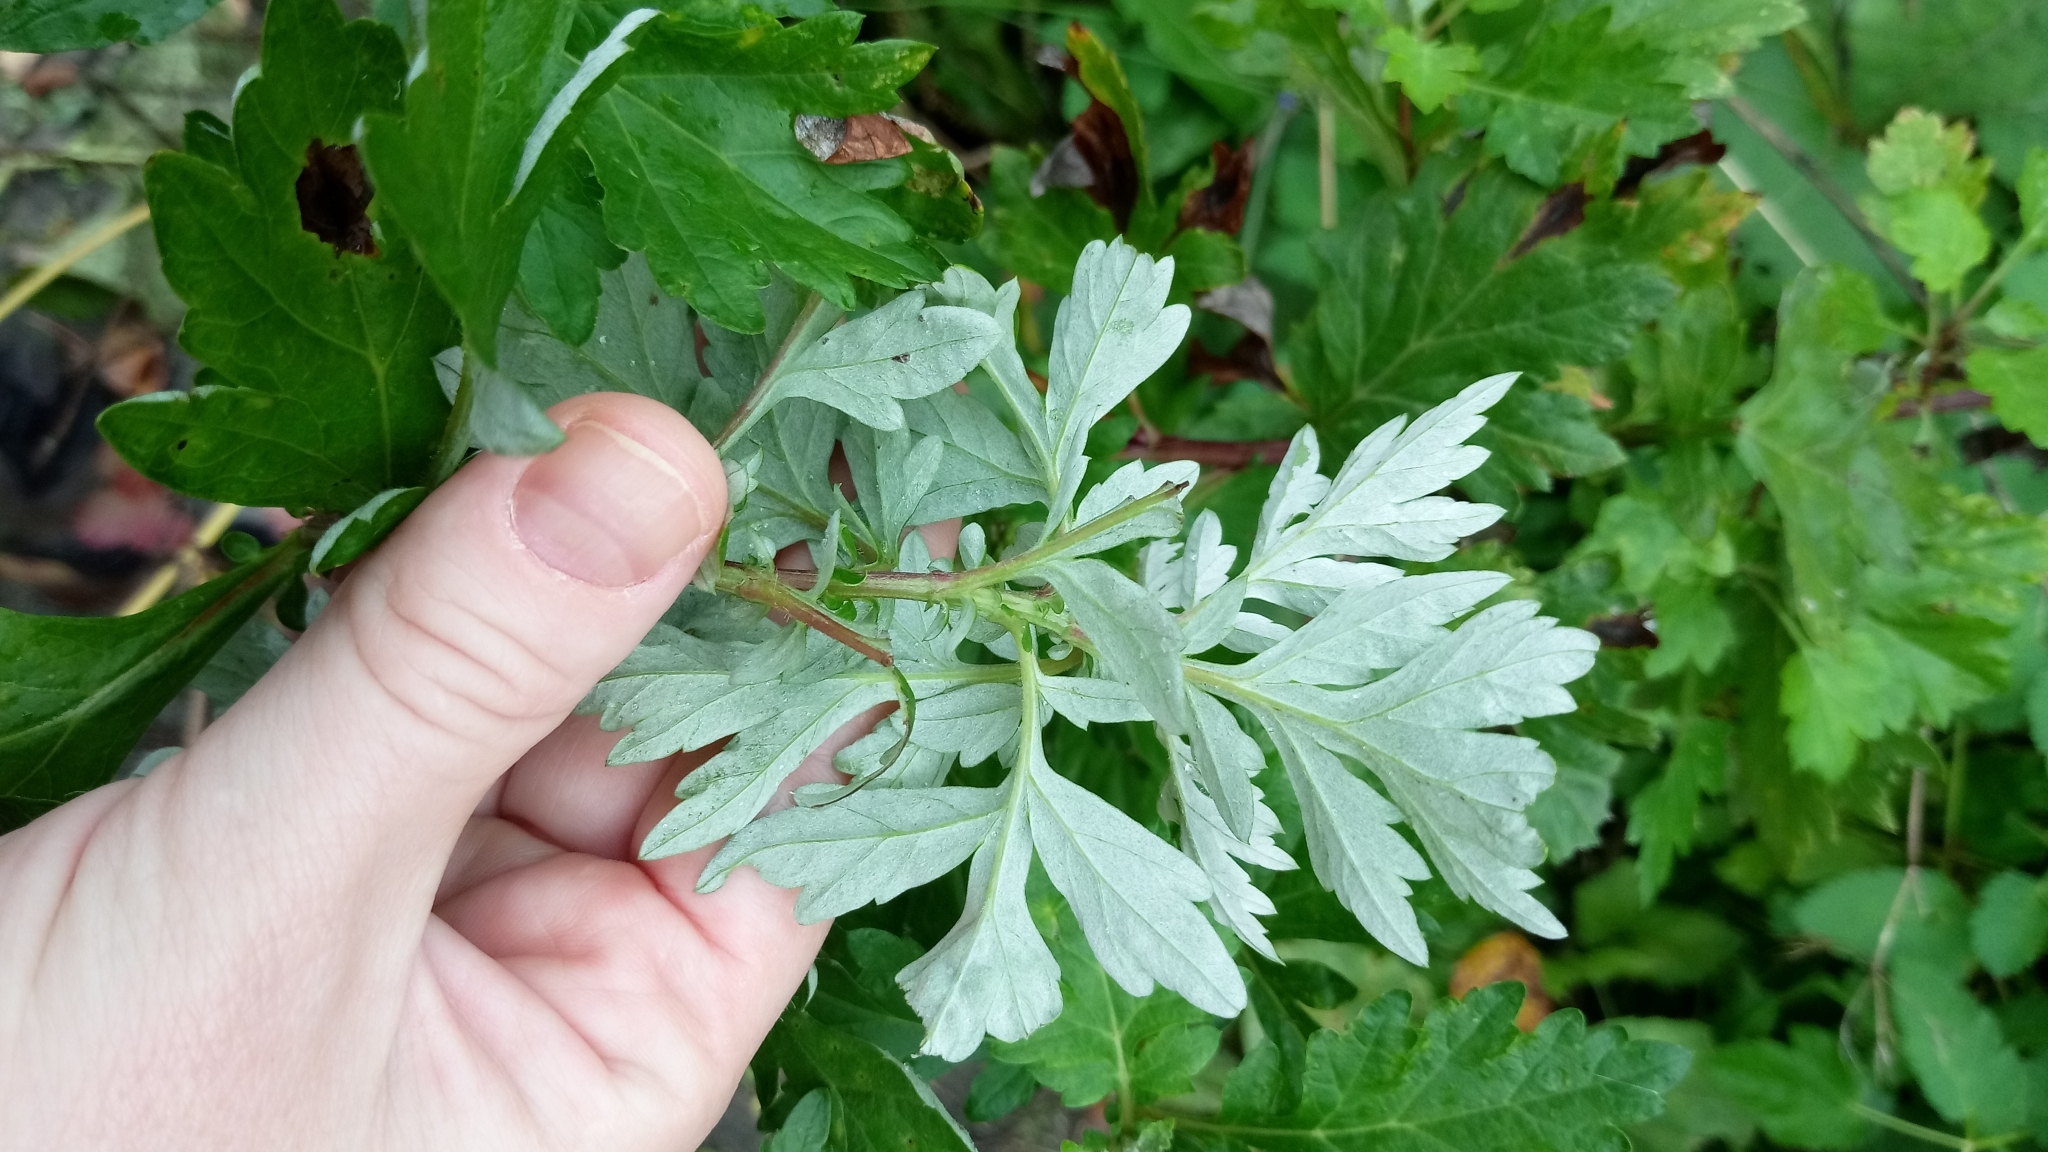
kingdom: Plantae
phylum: Tracheophyta
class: Magnoliopsida
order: Asterales
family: Asteraceae
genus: Artemisia
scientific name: Artemisia vulgaris
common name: Mugwort
